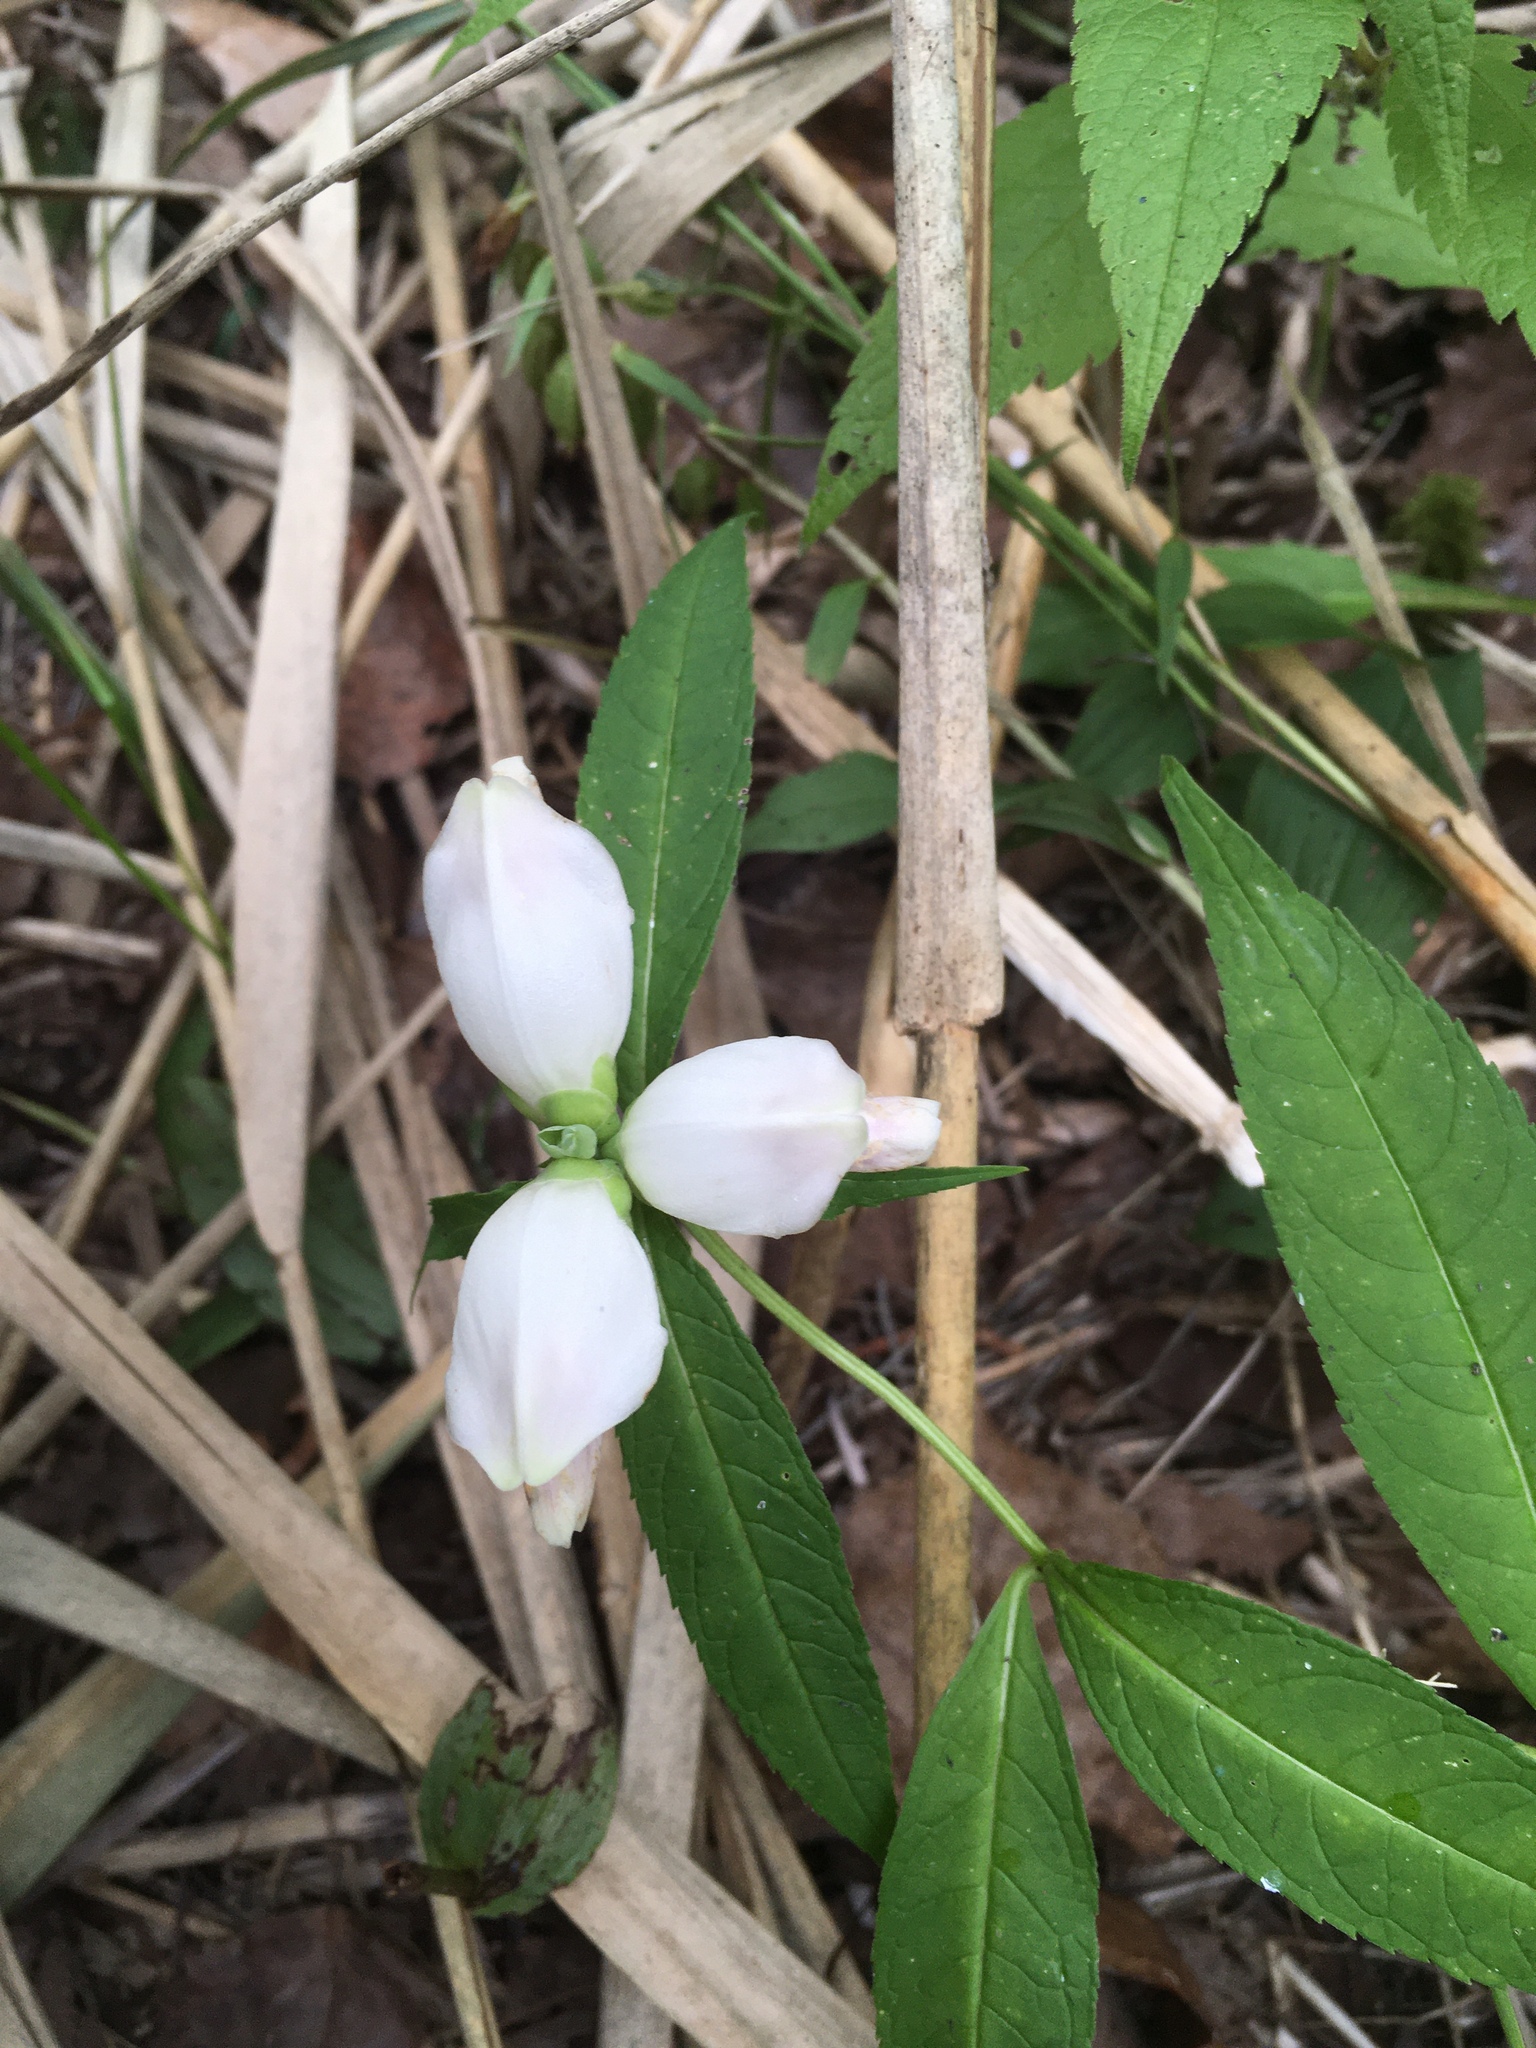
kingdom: Plantae
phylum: Tracheophyta
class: Magnoliopsida
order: Lamiales
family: Plantaginaceae
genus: Chelone
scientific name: Chelone glabra
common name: Snakehead
